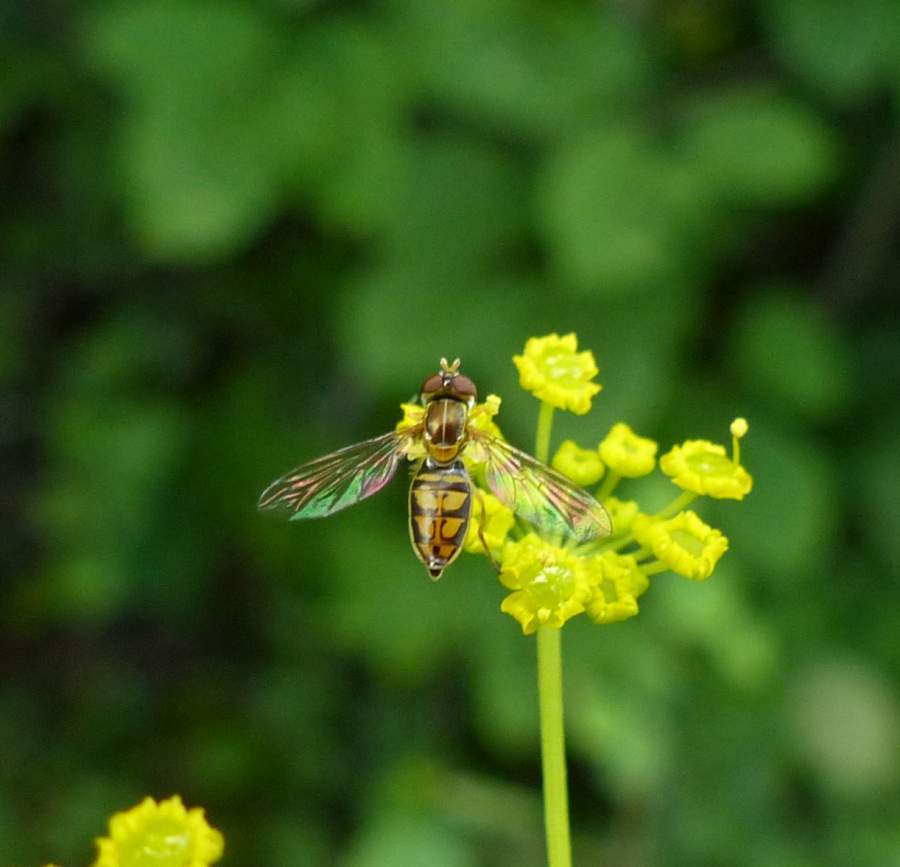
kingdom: Animalia
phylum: Arthropoda
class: Insecta
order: Diptera
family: Syrphidae
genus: Toxomerus
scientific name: Toxomerus marginatus
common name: Syrphid fly
